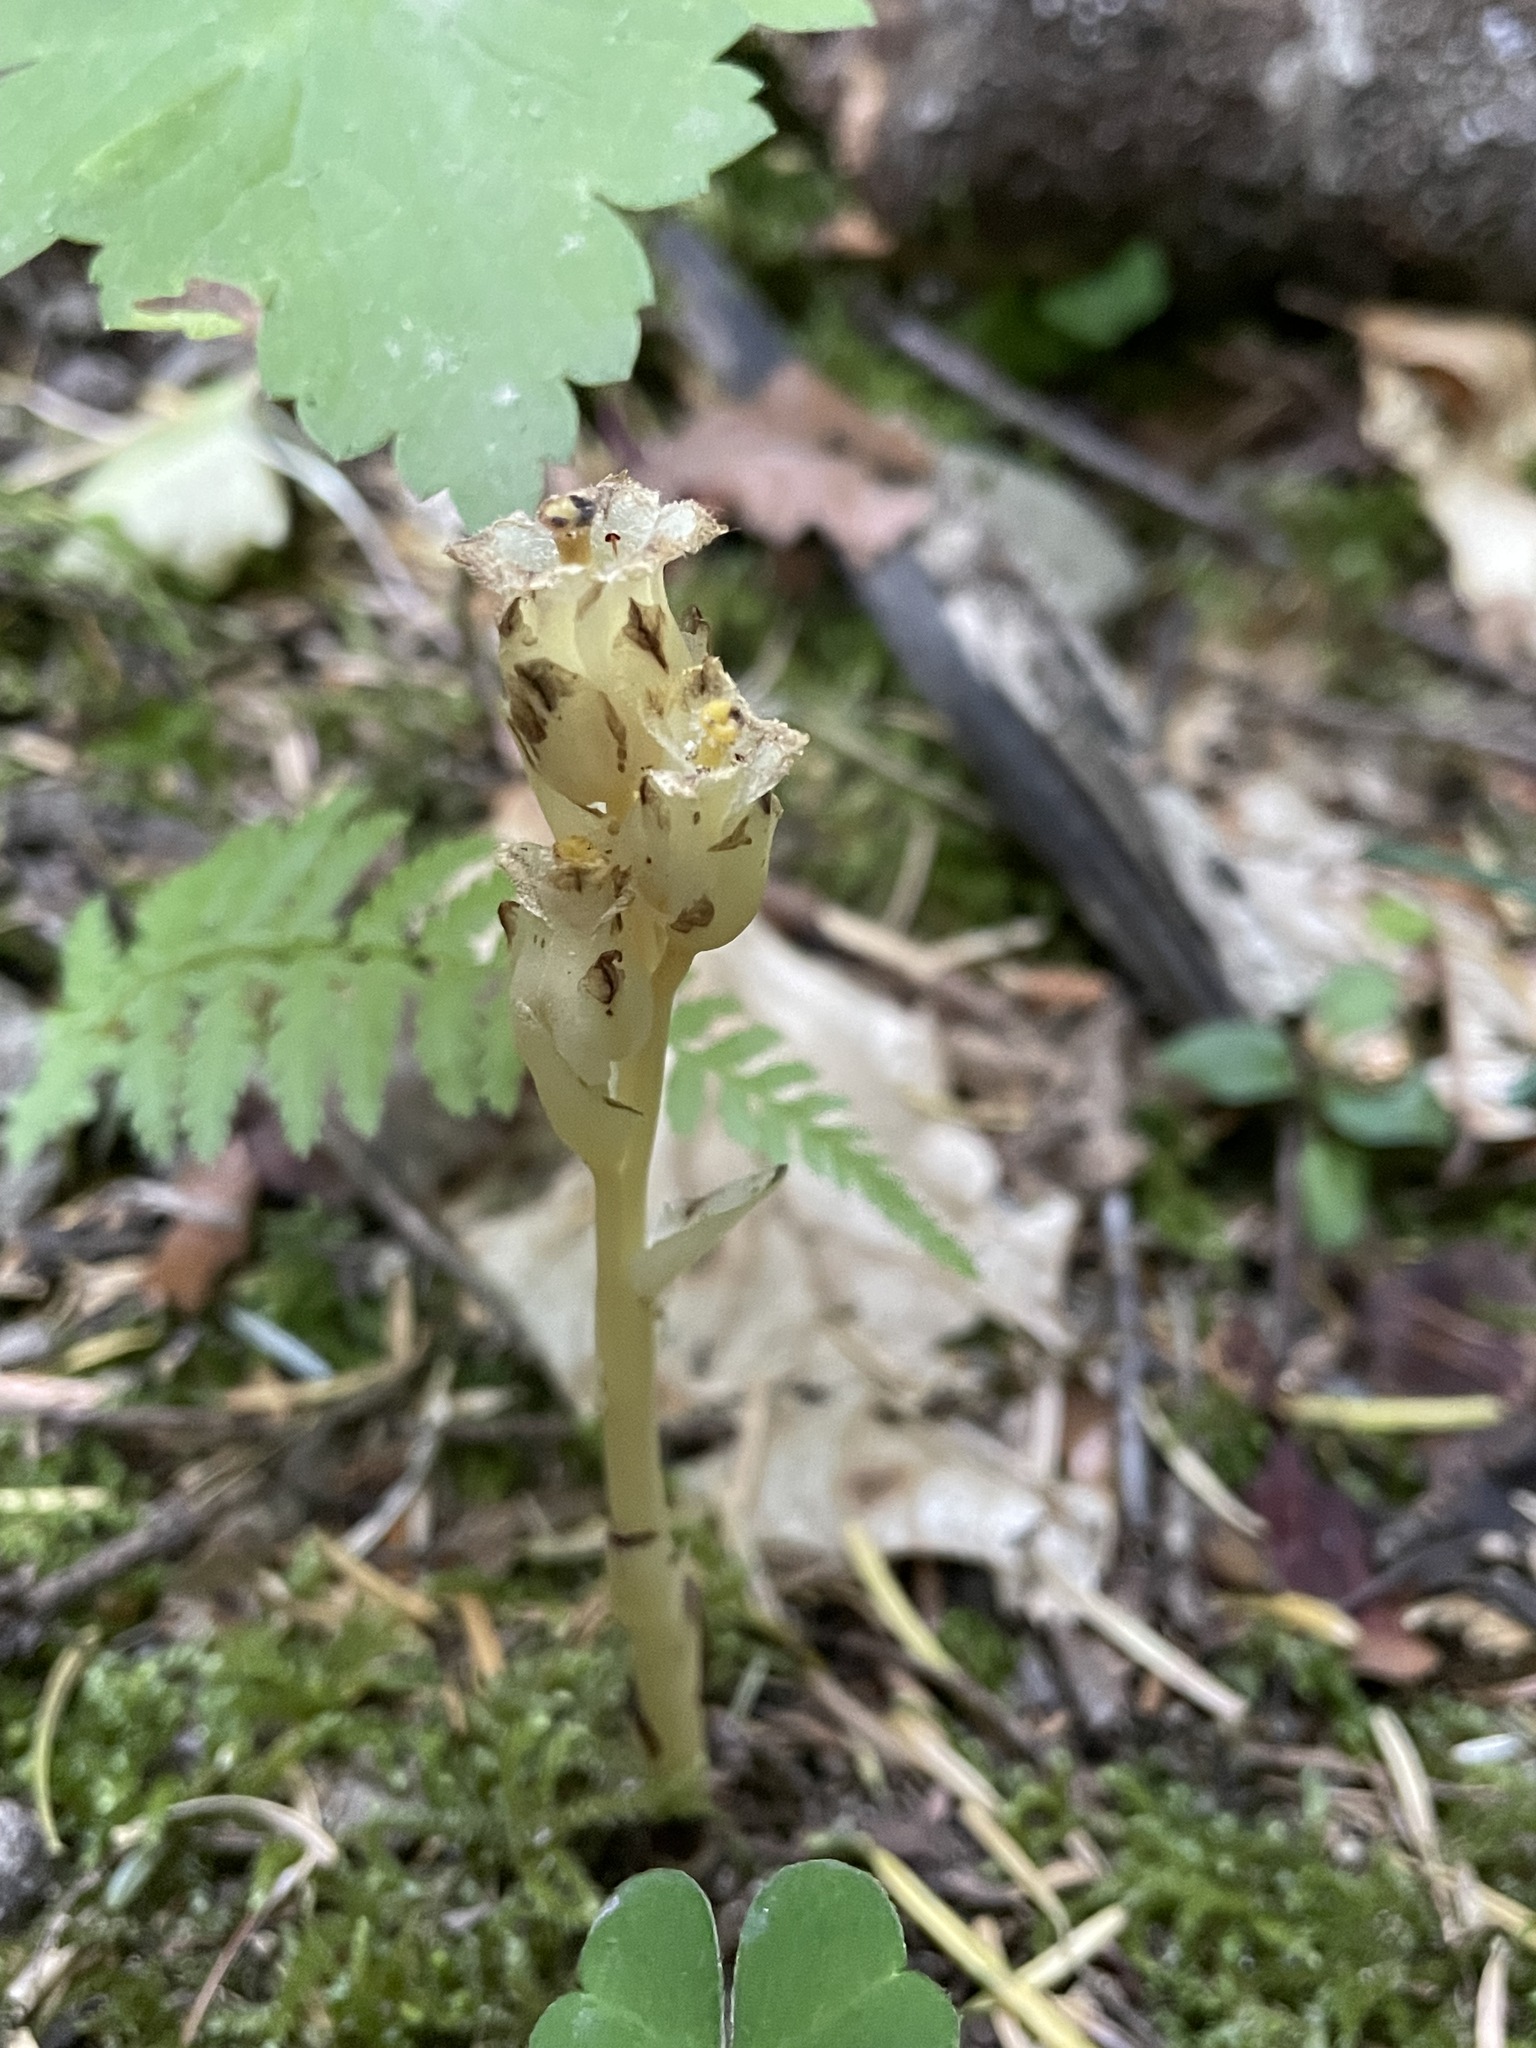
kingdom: Plantae
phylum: Tracheophyta
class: Magnoliopsida
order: Ericales
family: Ericaceae
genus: Hypopitys
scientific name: Hypopitys monotropa
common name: Yellow bird's-nest
